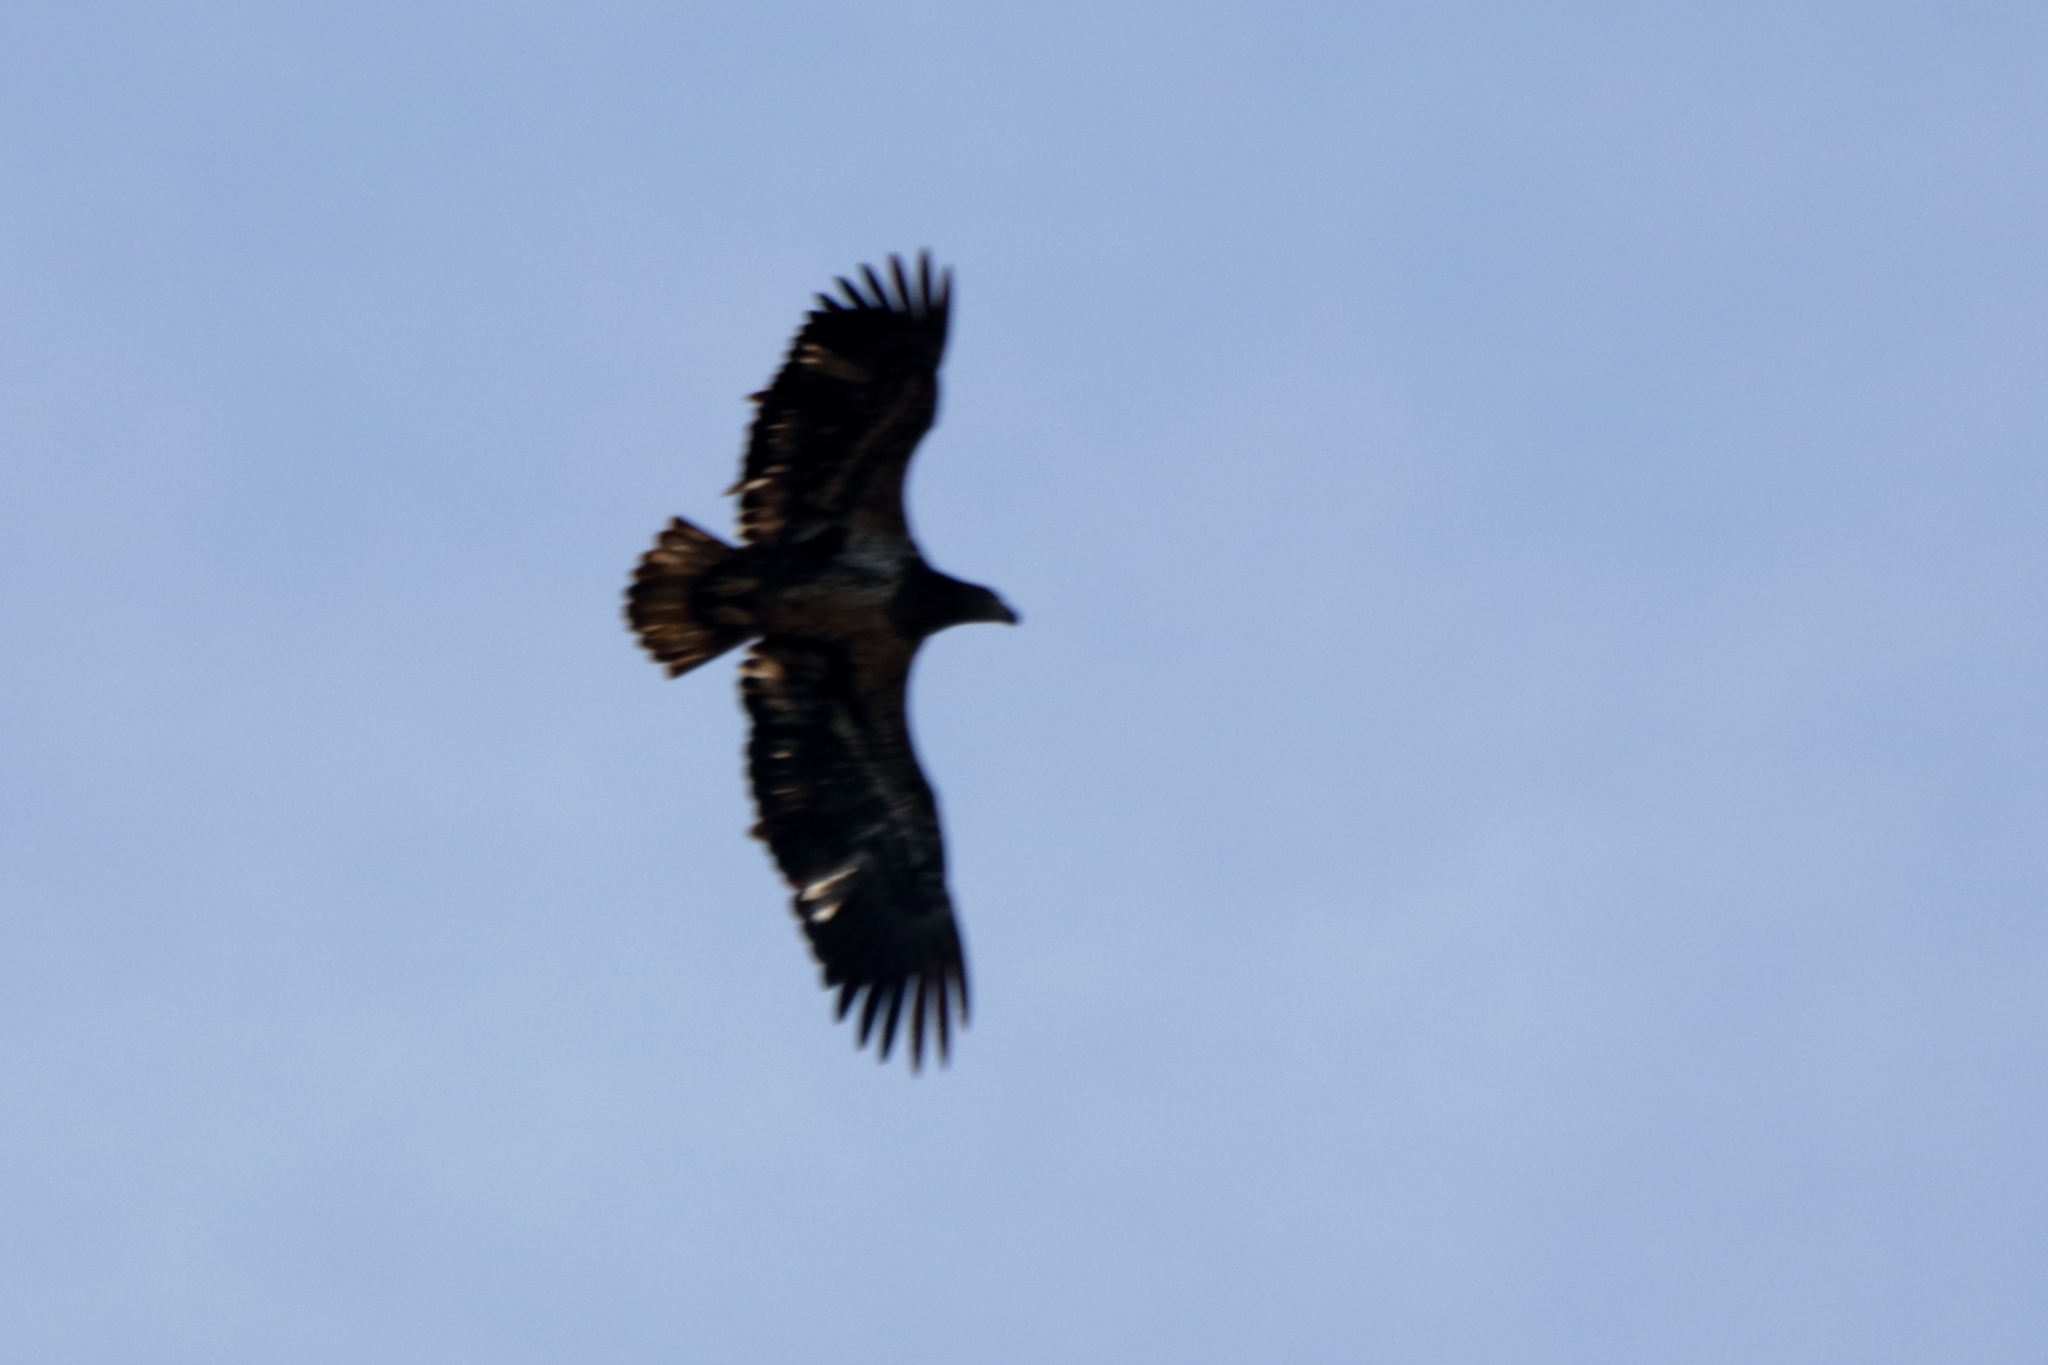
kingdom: Animalia
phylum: Chordata
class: Aves
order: Accipitriformes
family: Accipitridae
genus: Haliaeetus
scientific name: Haliaeetus leucocephalus
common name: Bald eagle
